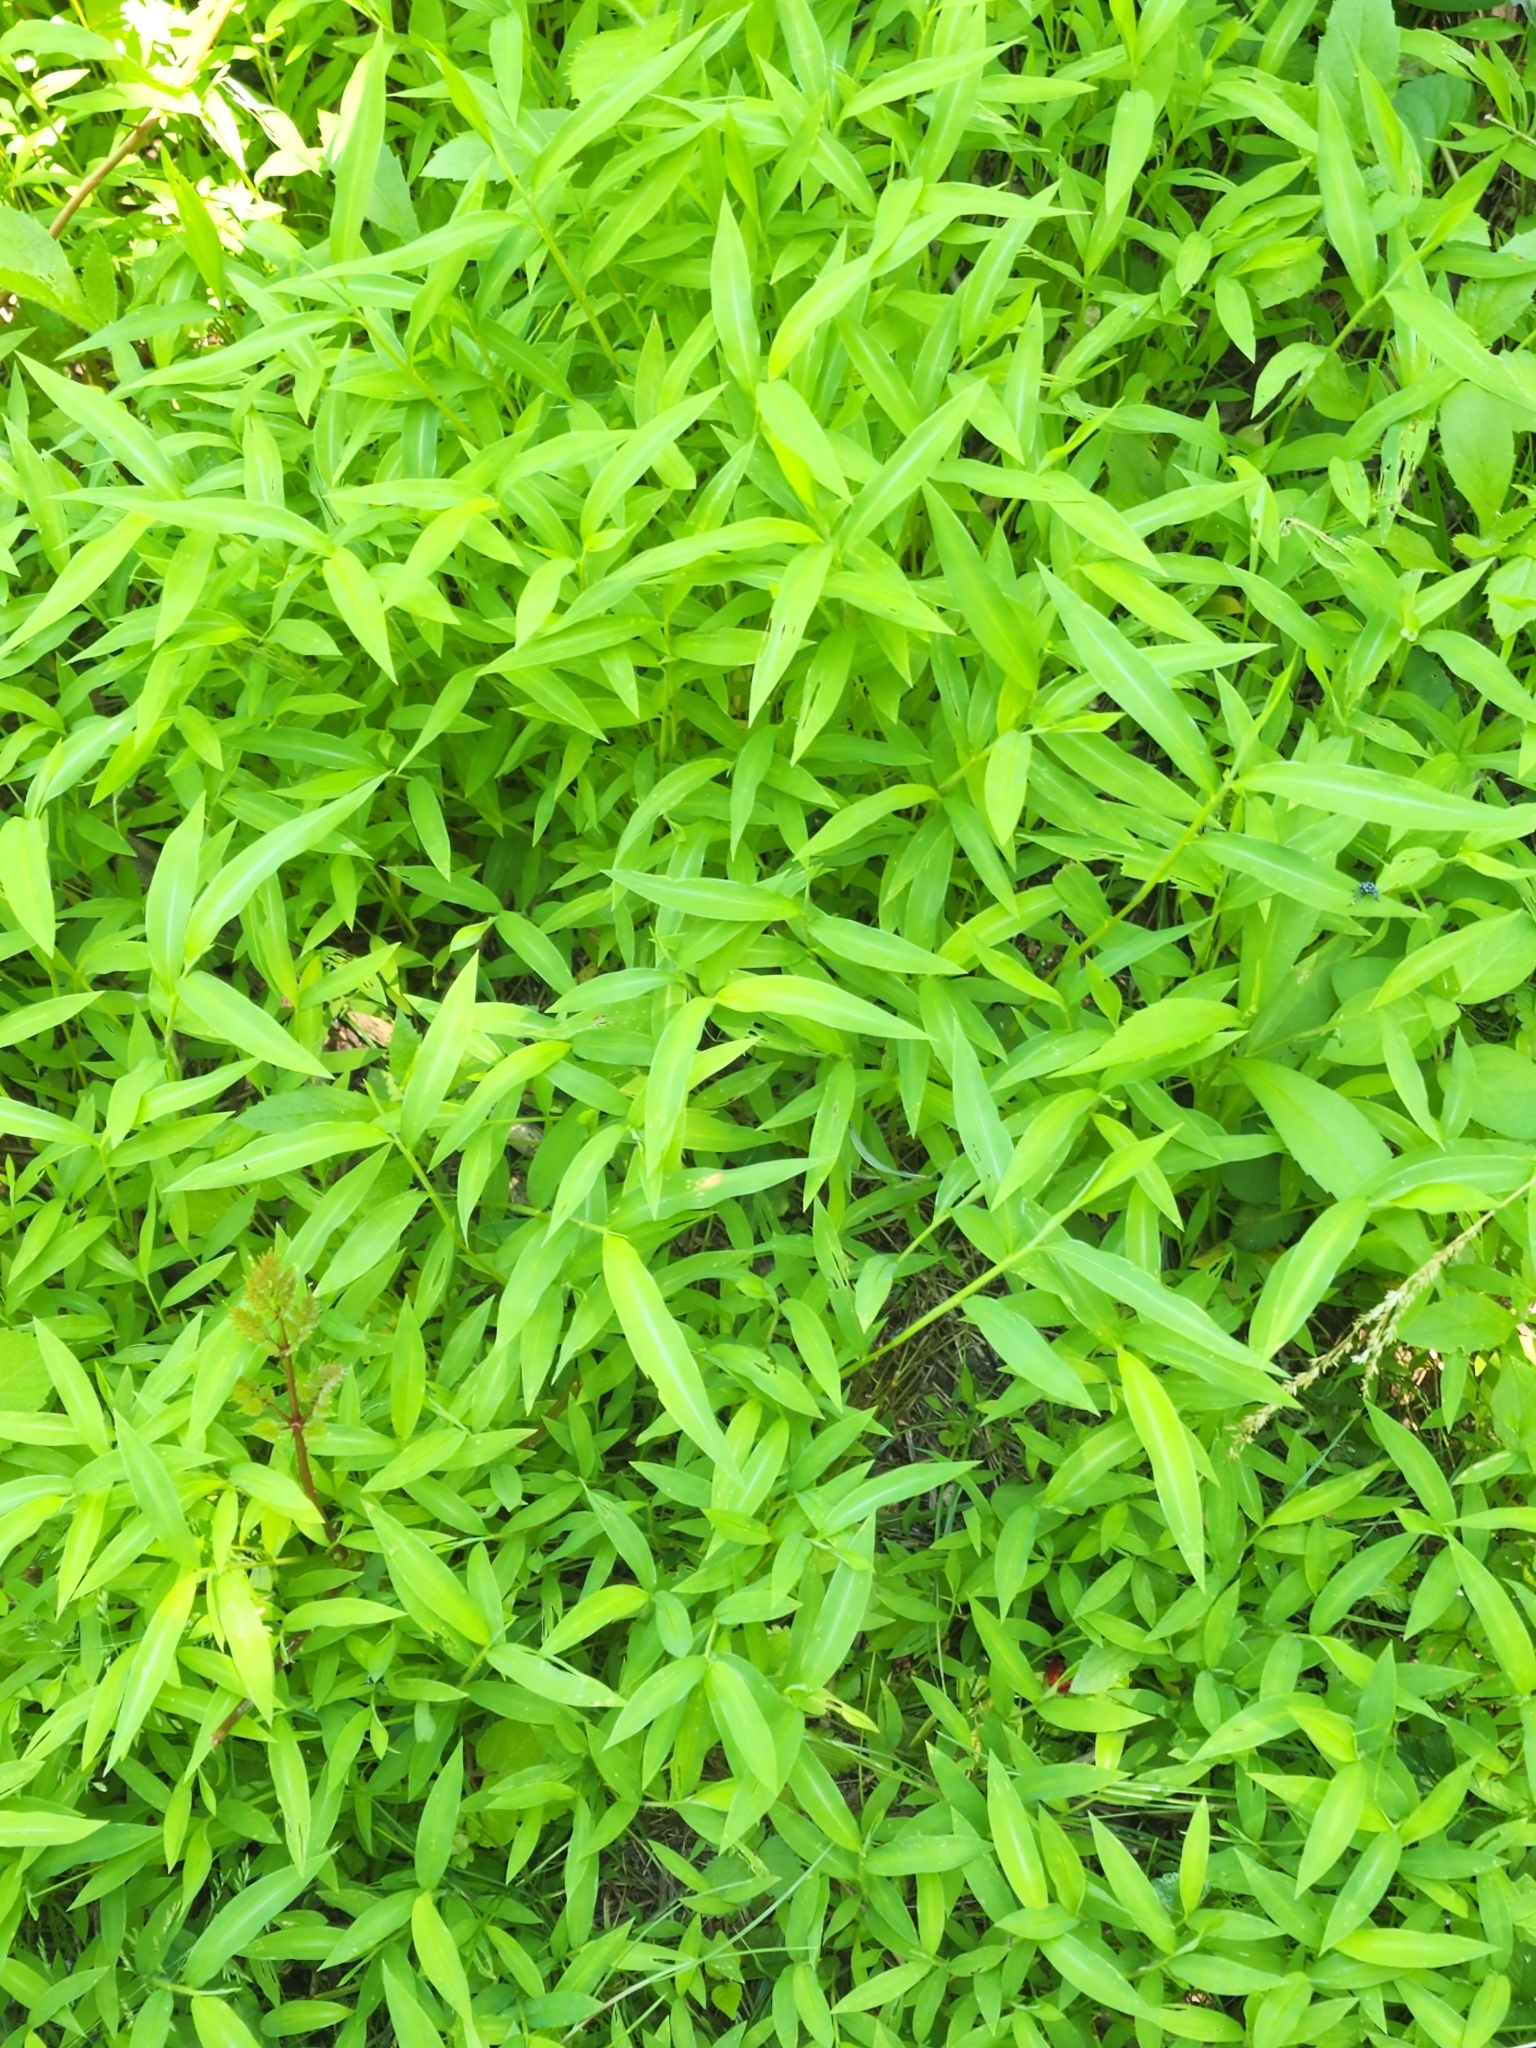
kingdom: Plantae
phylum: Tracheophyta
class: Liliopsida
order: Poales
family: Poaceae
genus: Microstegium
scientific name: Microstegium vimineum
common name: Japanese stiltgrass
